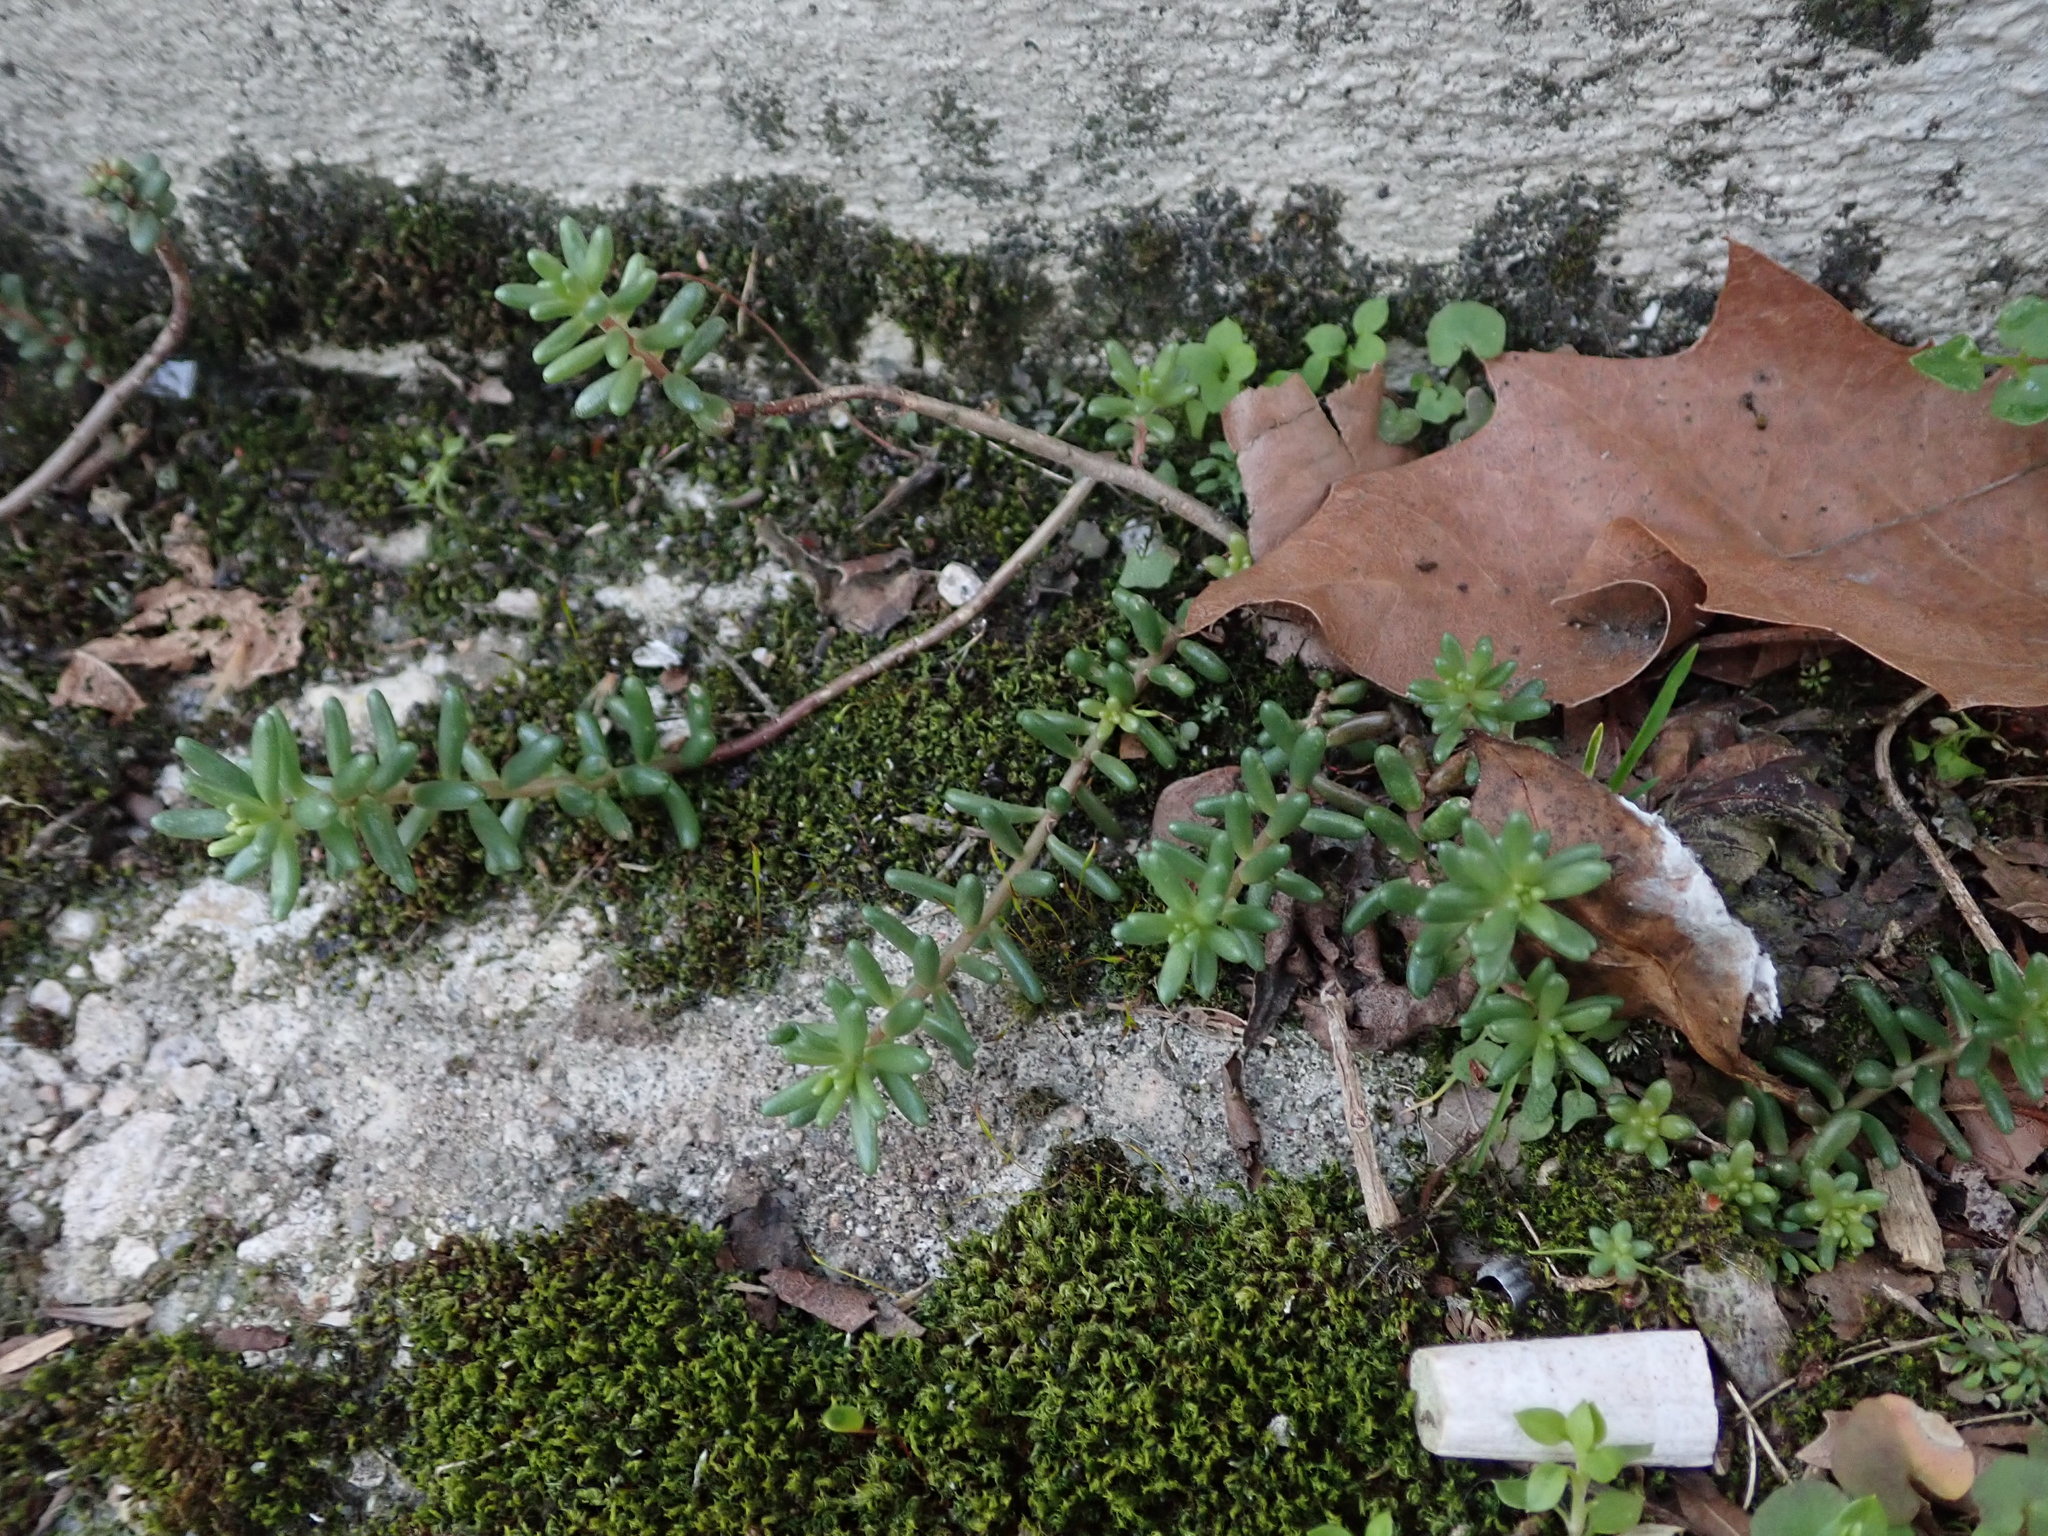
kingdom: Plantae
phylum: Tracheophyta
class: Magnoliopsida
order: Saxifragales
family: Crassulaceae
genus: Sedum
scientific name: Sedum album
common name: White stonecrop
